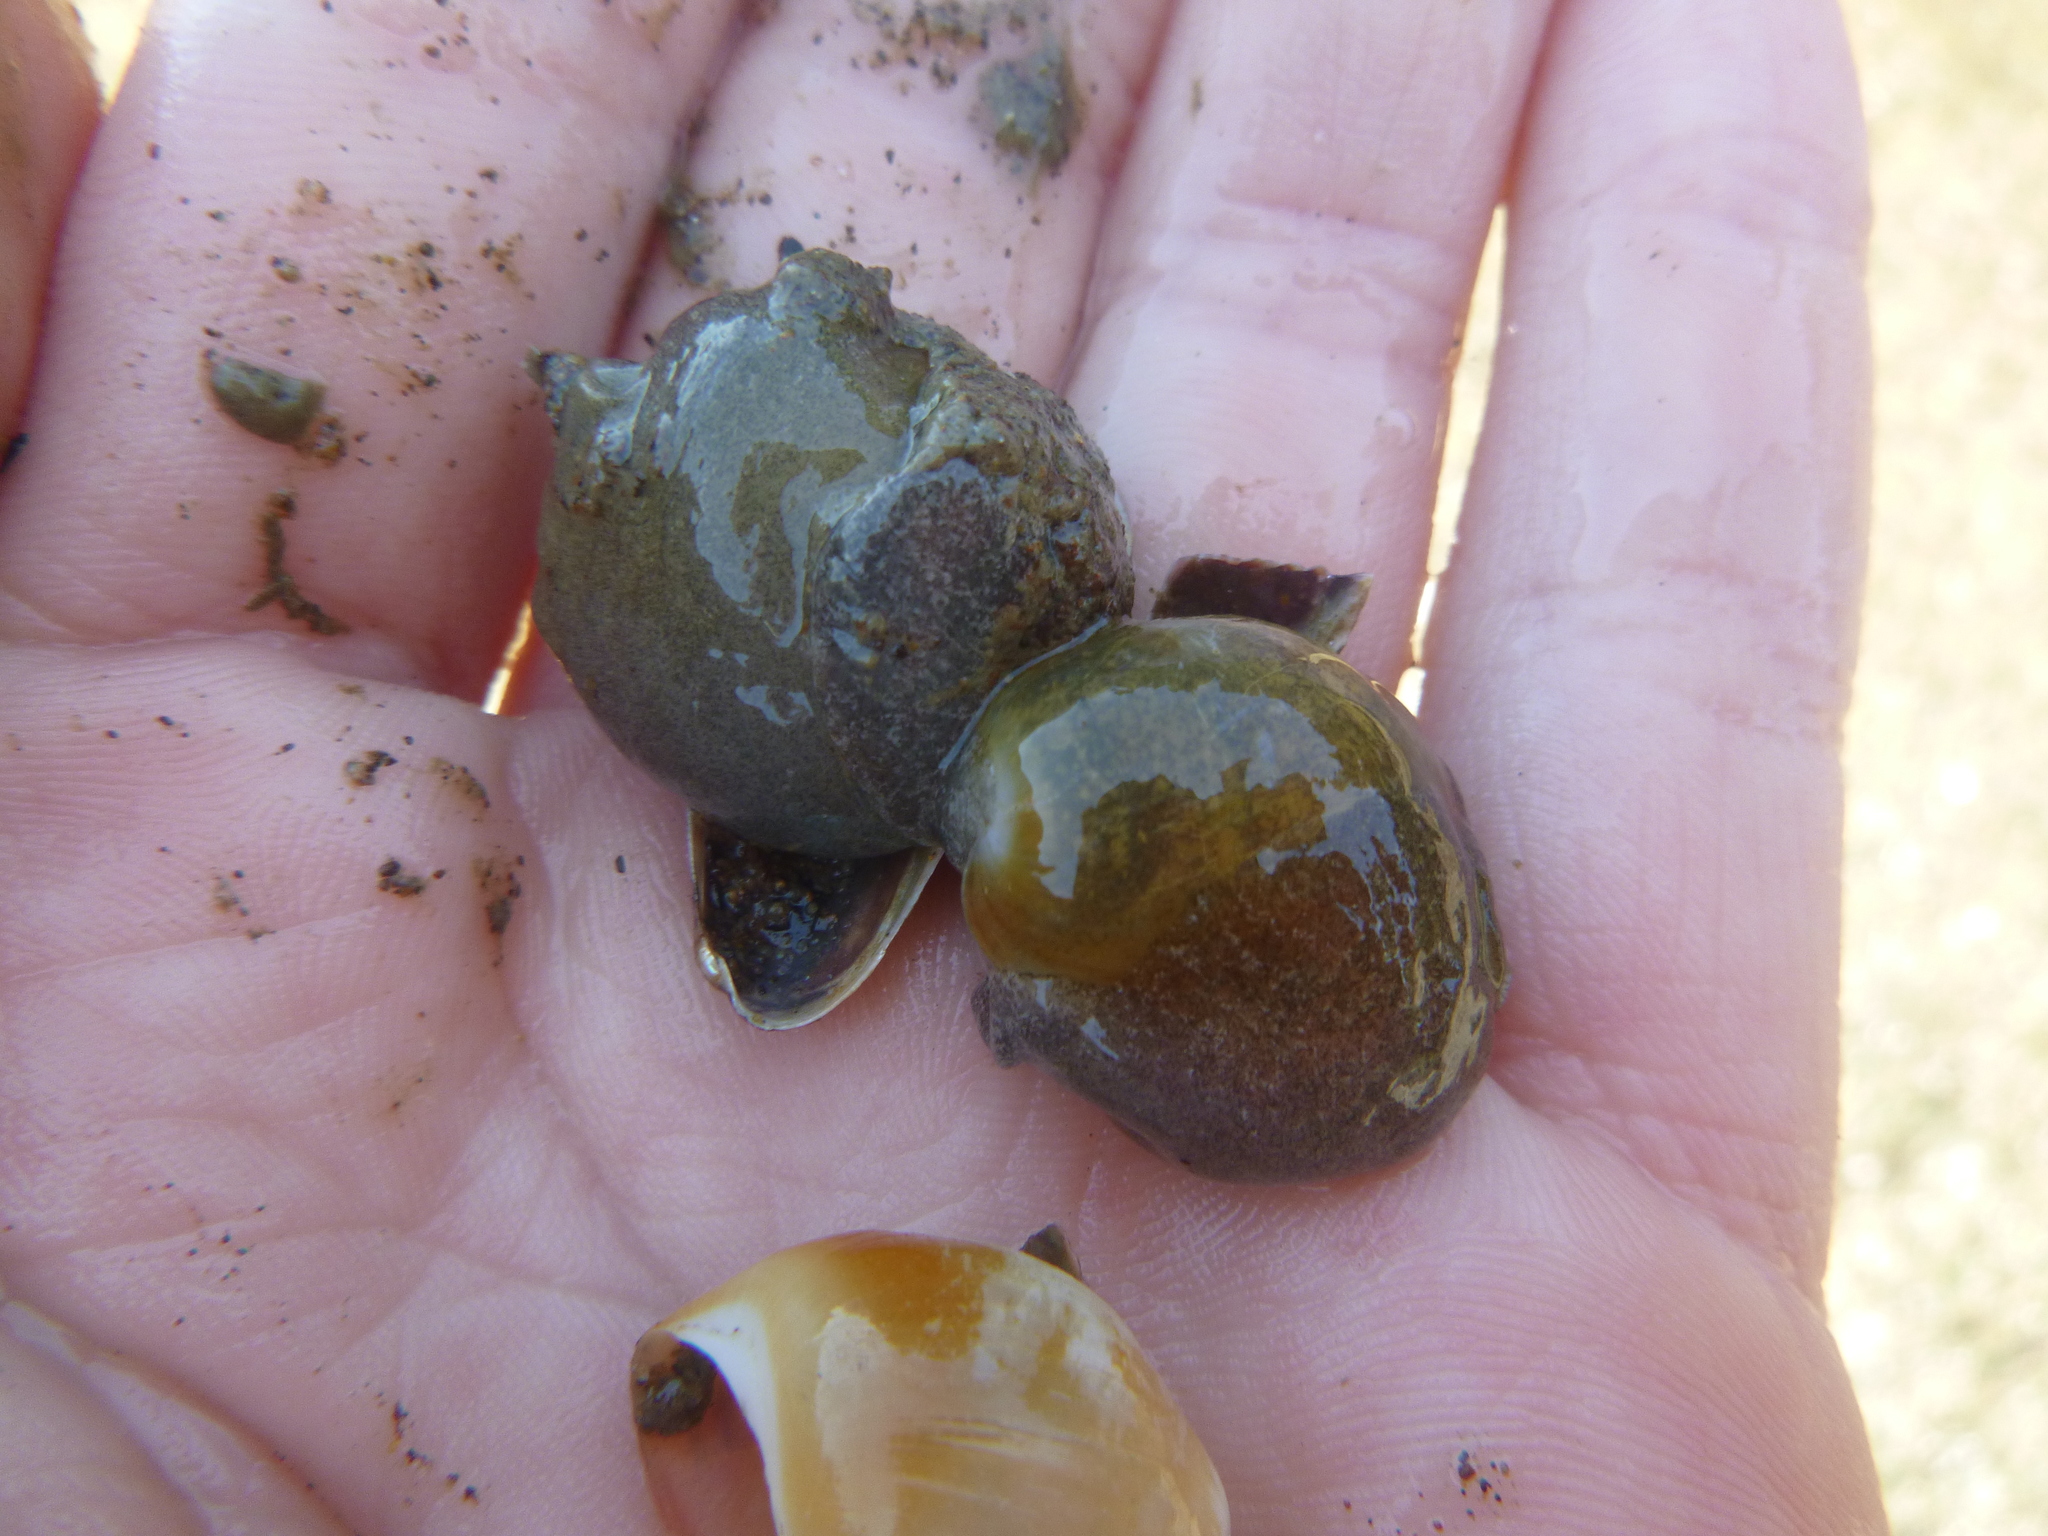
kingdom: Animalia
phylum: Mollusca
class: Gastropoda
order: Cephalaspidea
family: Haminoeidae
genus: Papawera
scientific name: Papawera zelandiae
